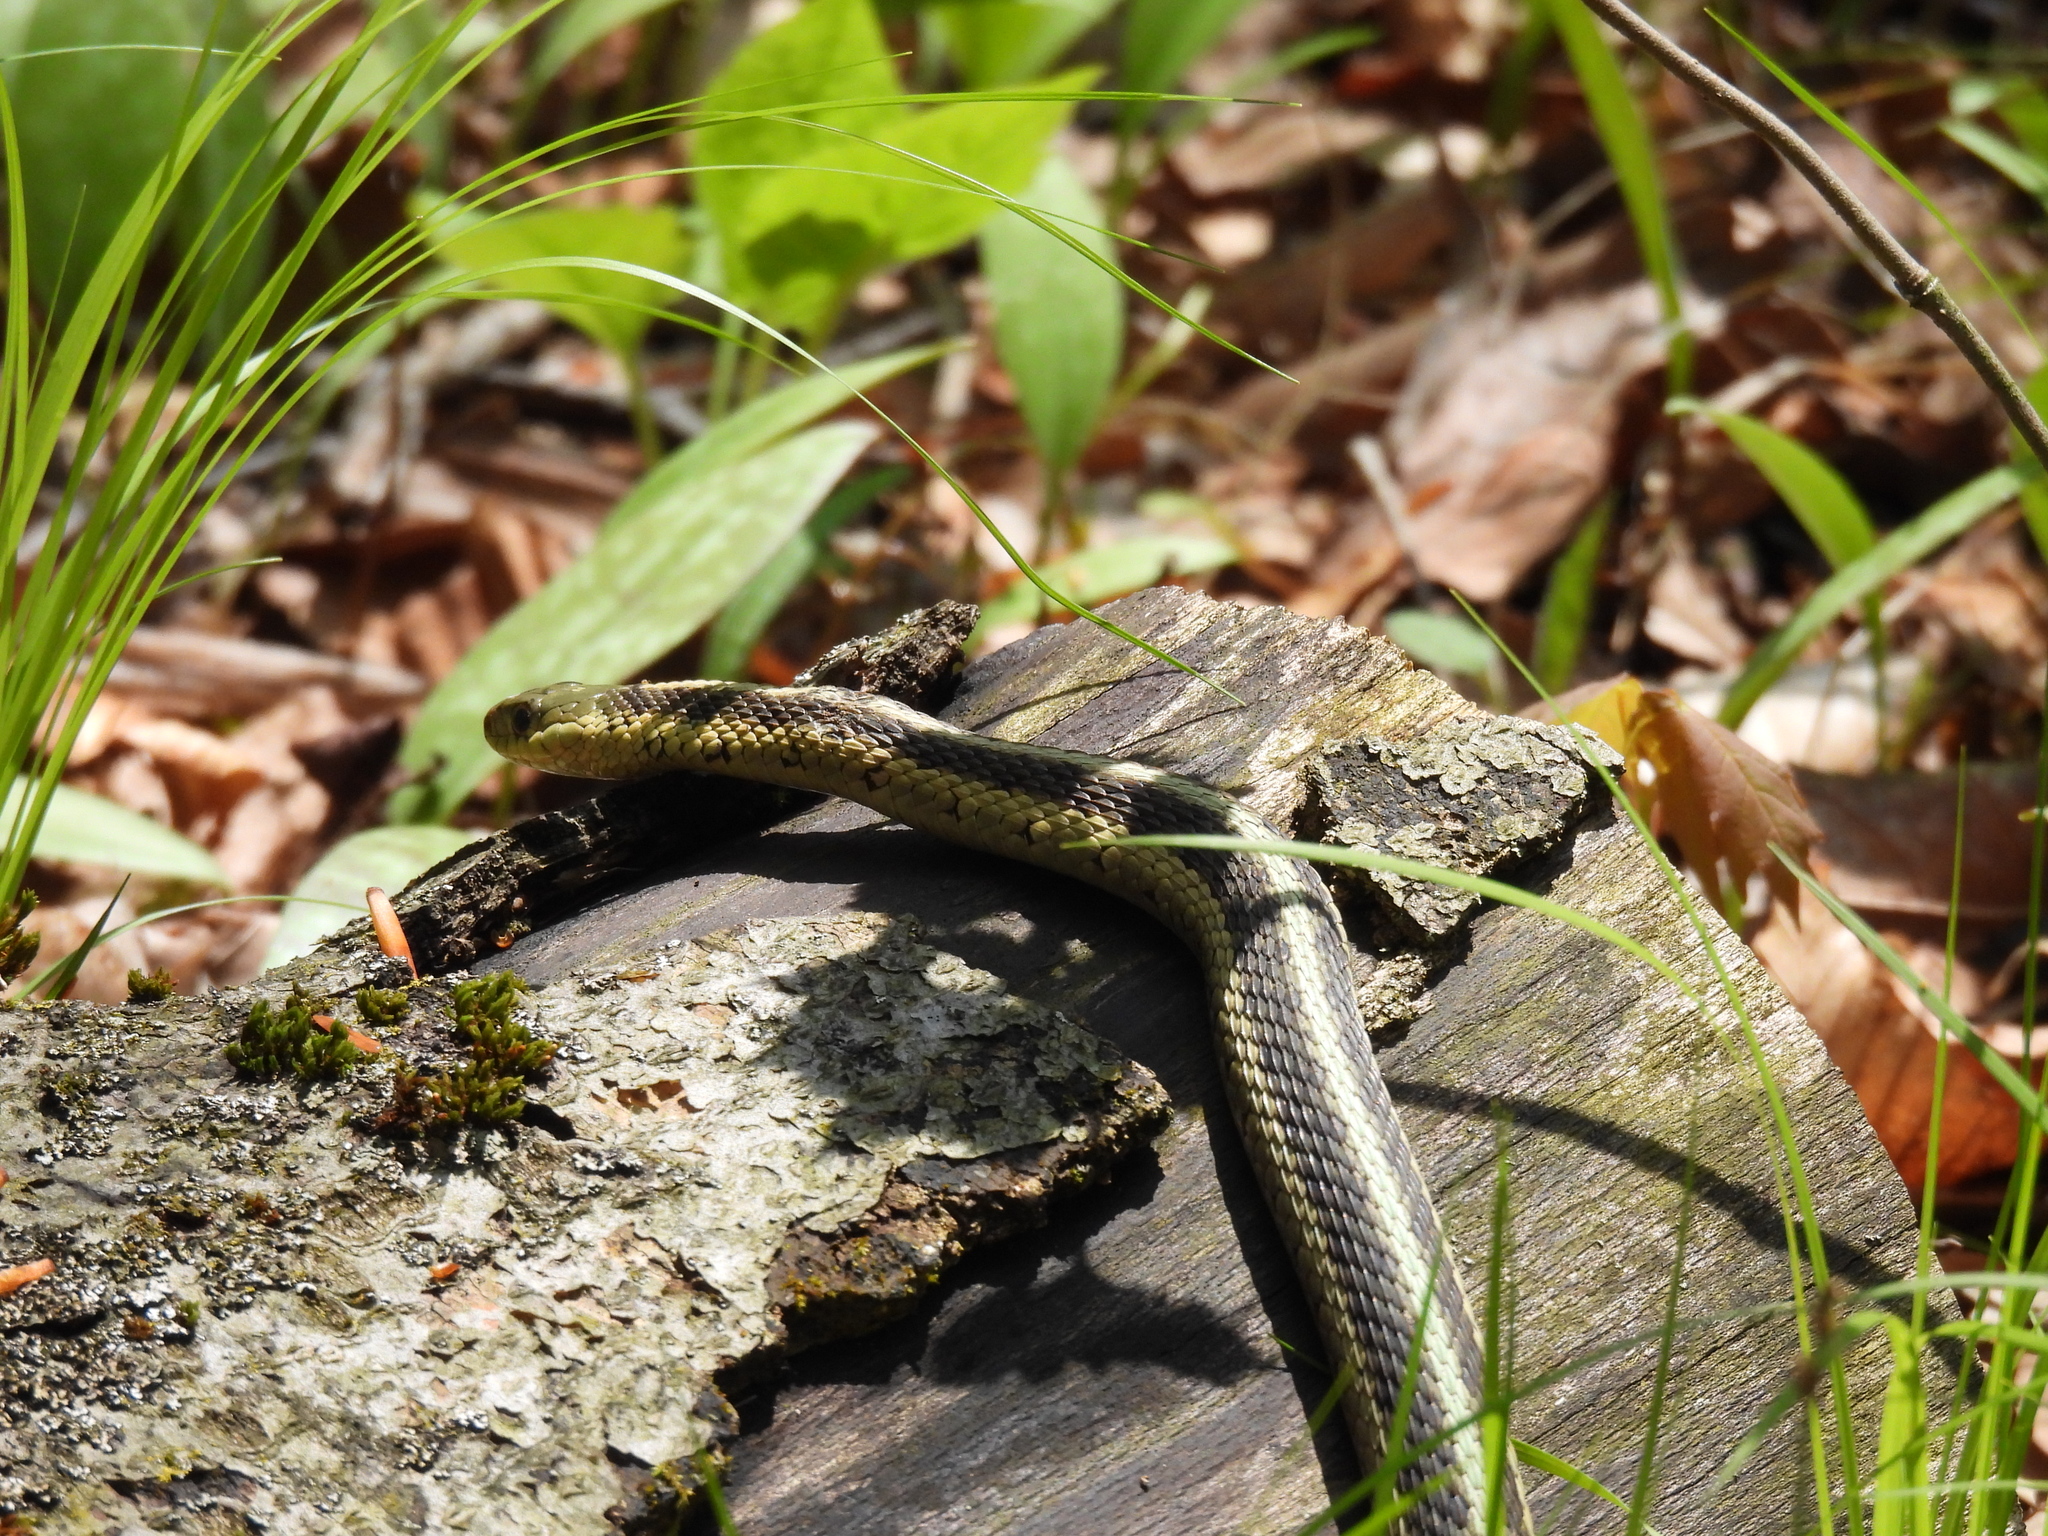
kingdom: Animalia
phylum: Chordata
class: Squamata
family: Colubridae
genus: Thamnophis
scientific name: Thamnophis sirtalis
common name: Common garter snake
